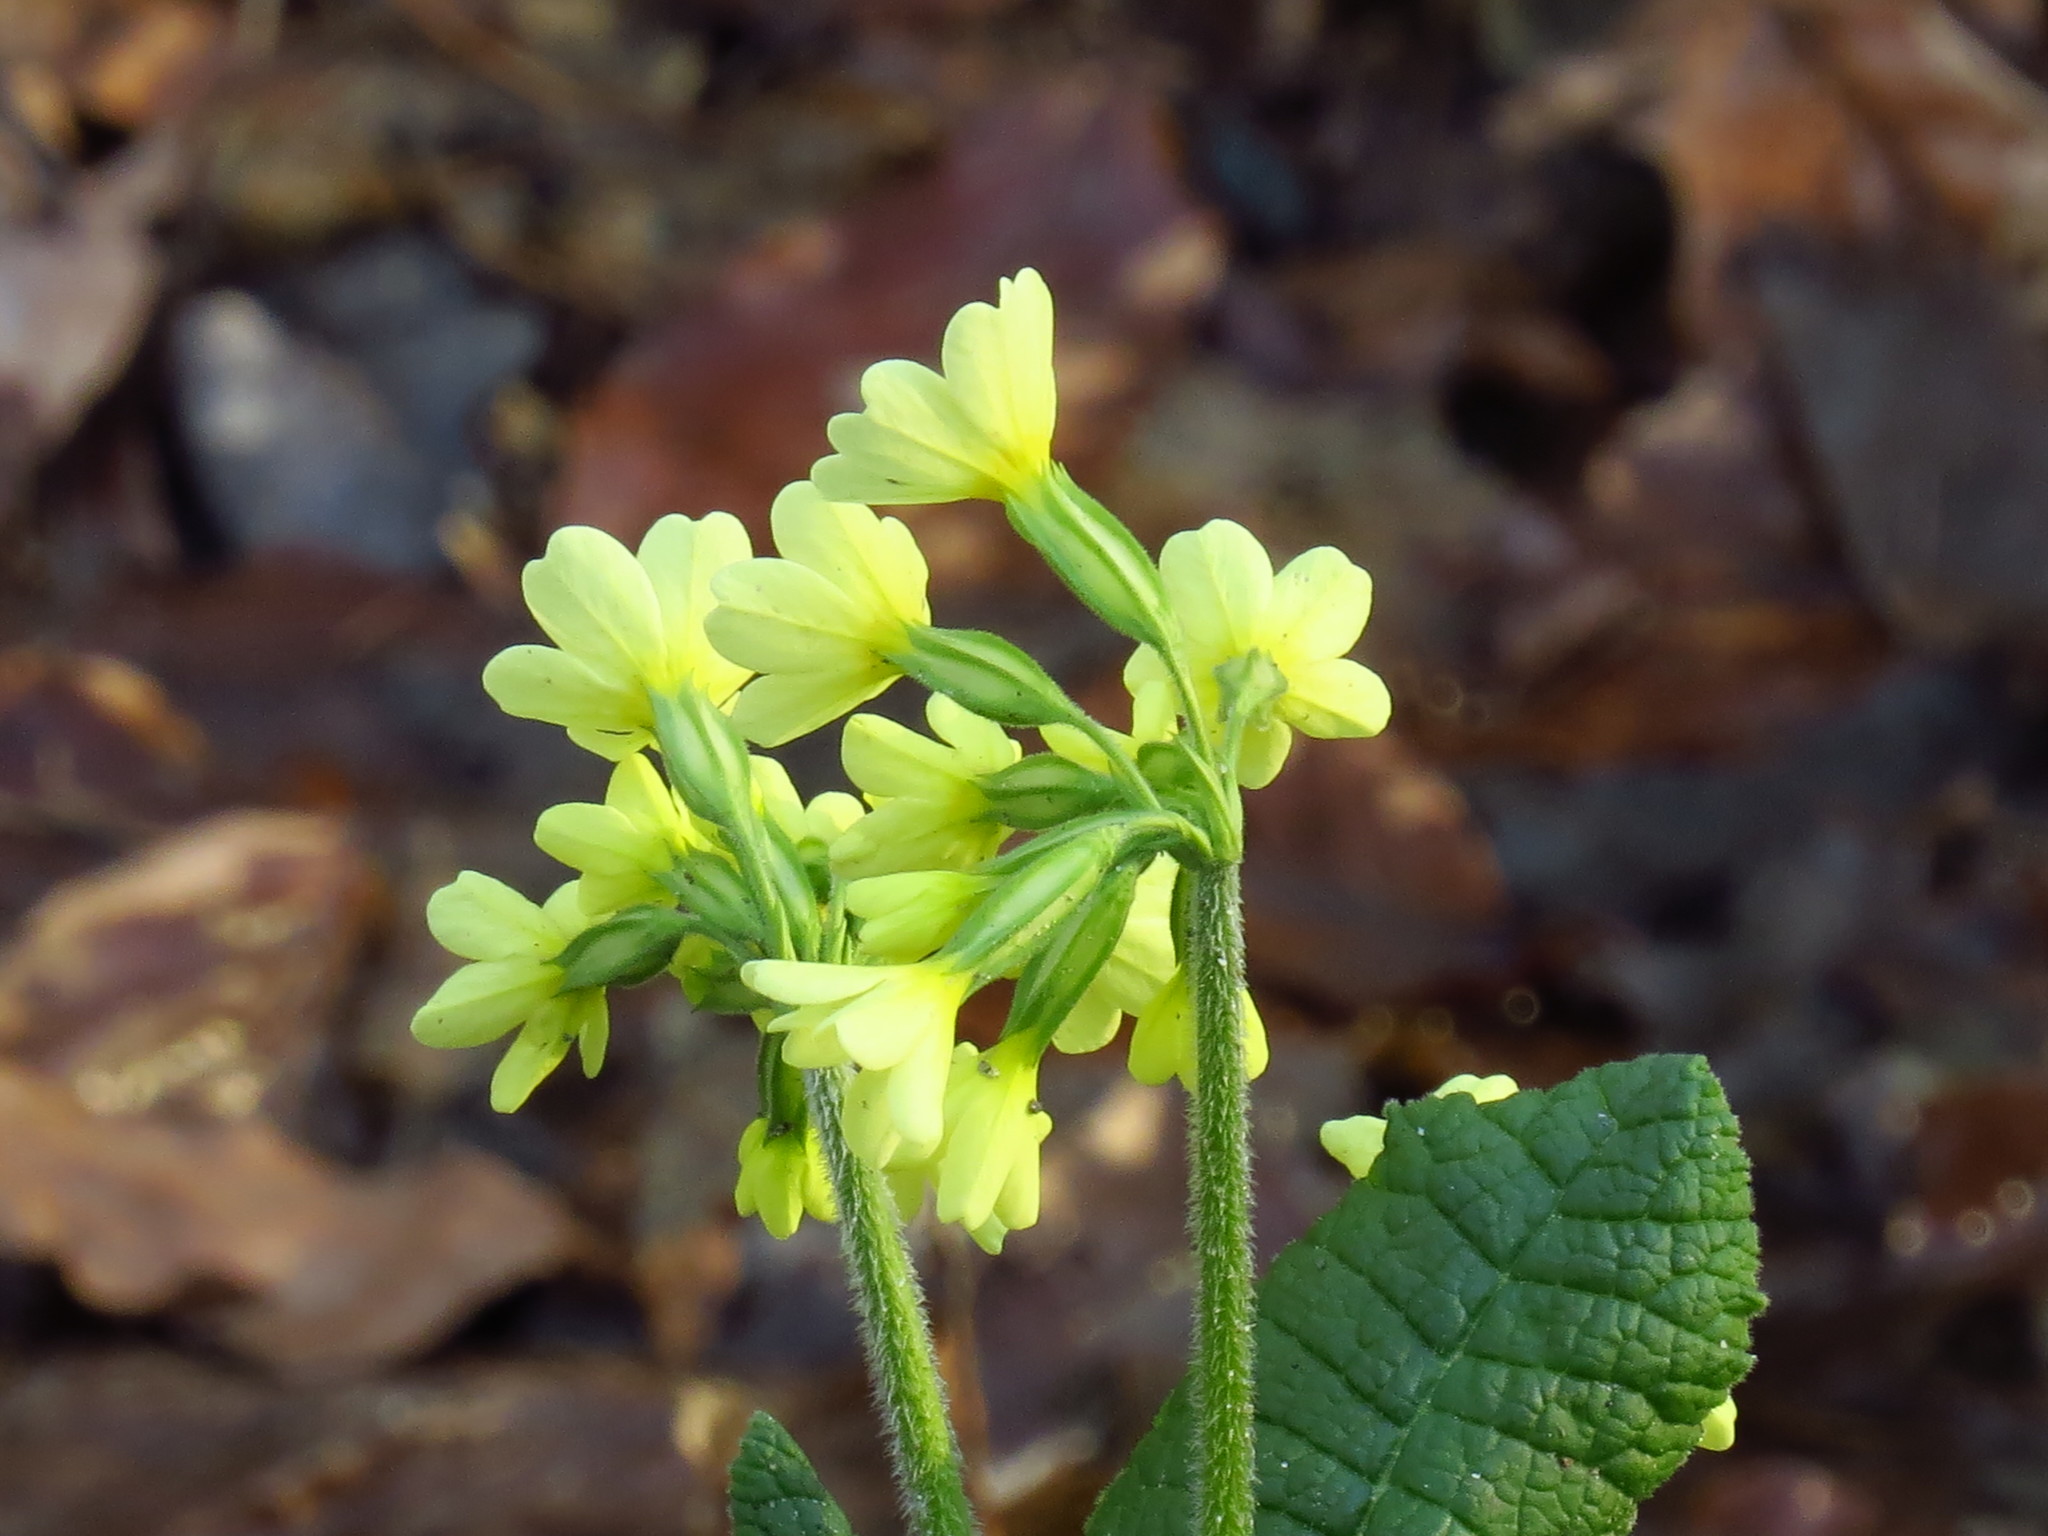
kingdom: Plantae
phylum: Tracheophyta
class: Magnoliopsida
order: Ericales
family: Primulaceae
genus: Primula
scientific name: Primula elatior
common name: Oxlip
